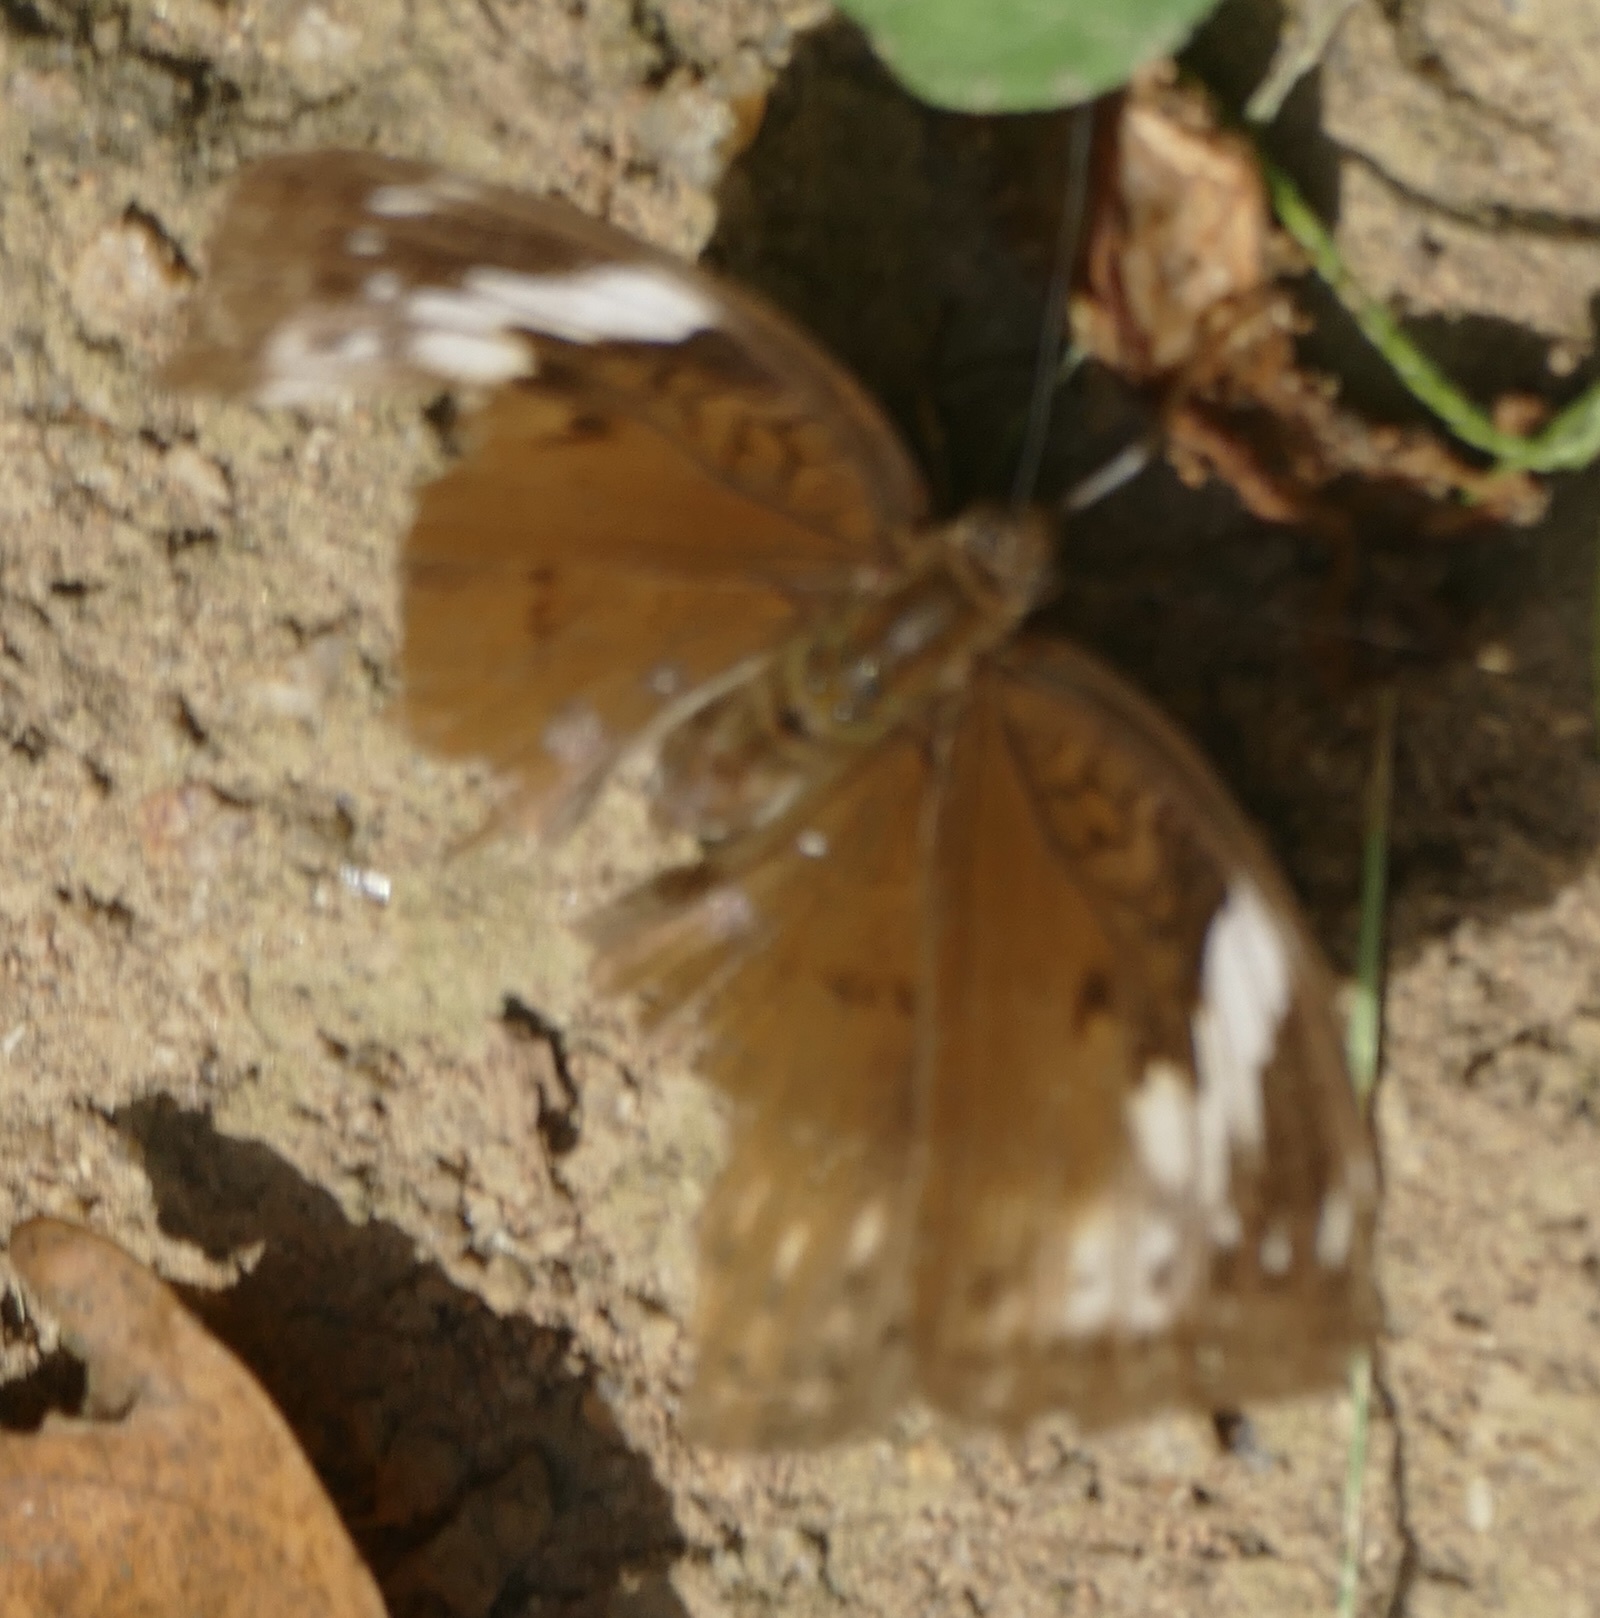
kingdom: Animalia
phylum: Arthropoda
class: Insecta
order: Lepidoptera
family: Nymphalidae
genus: Bebearia
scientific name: Bebearia mardania
